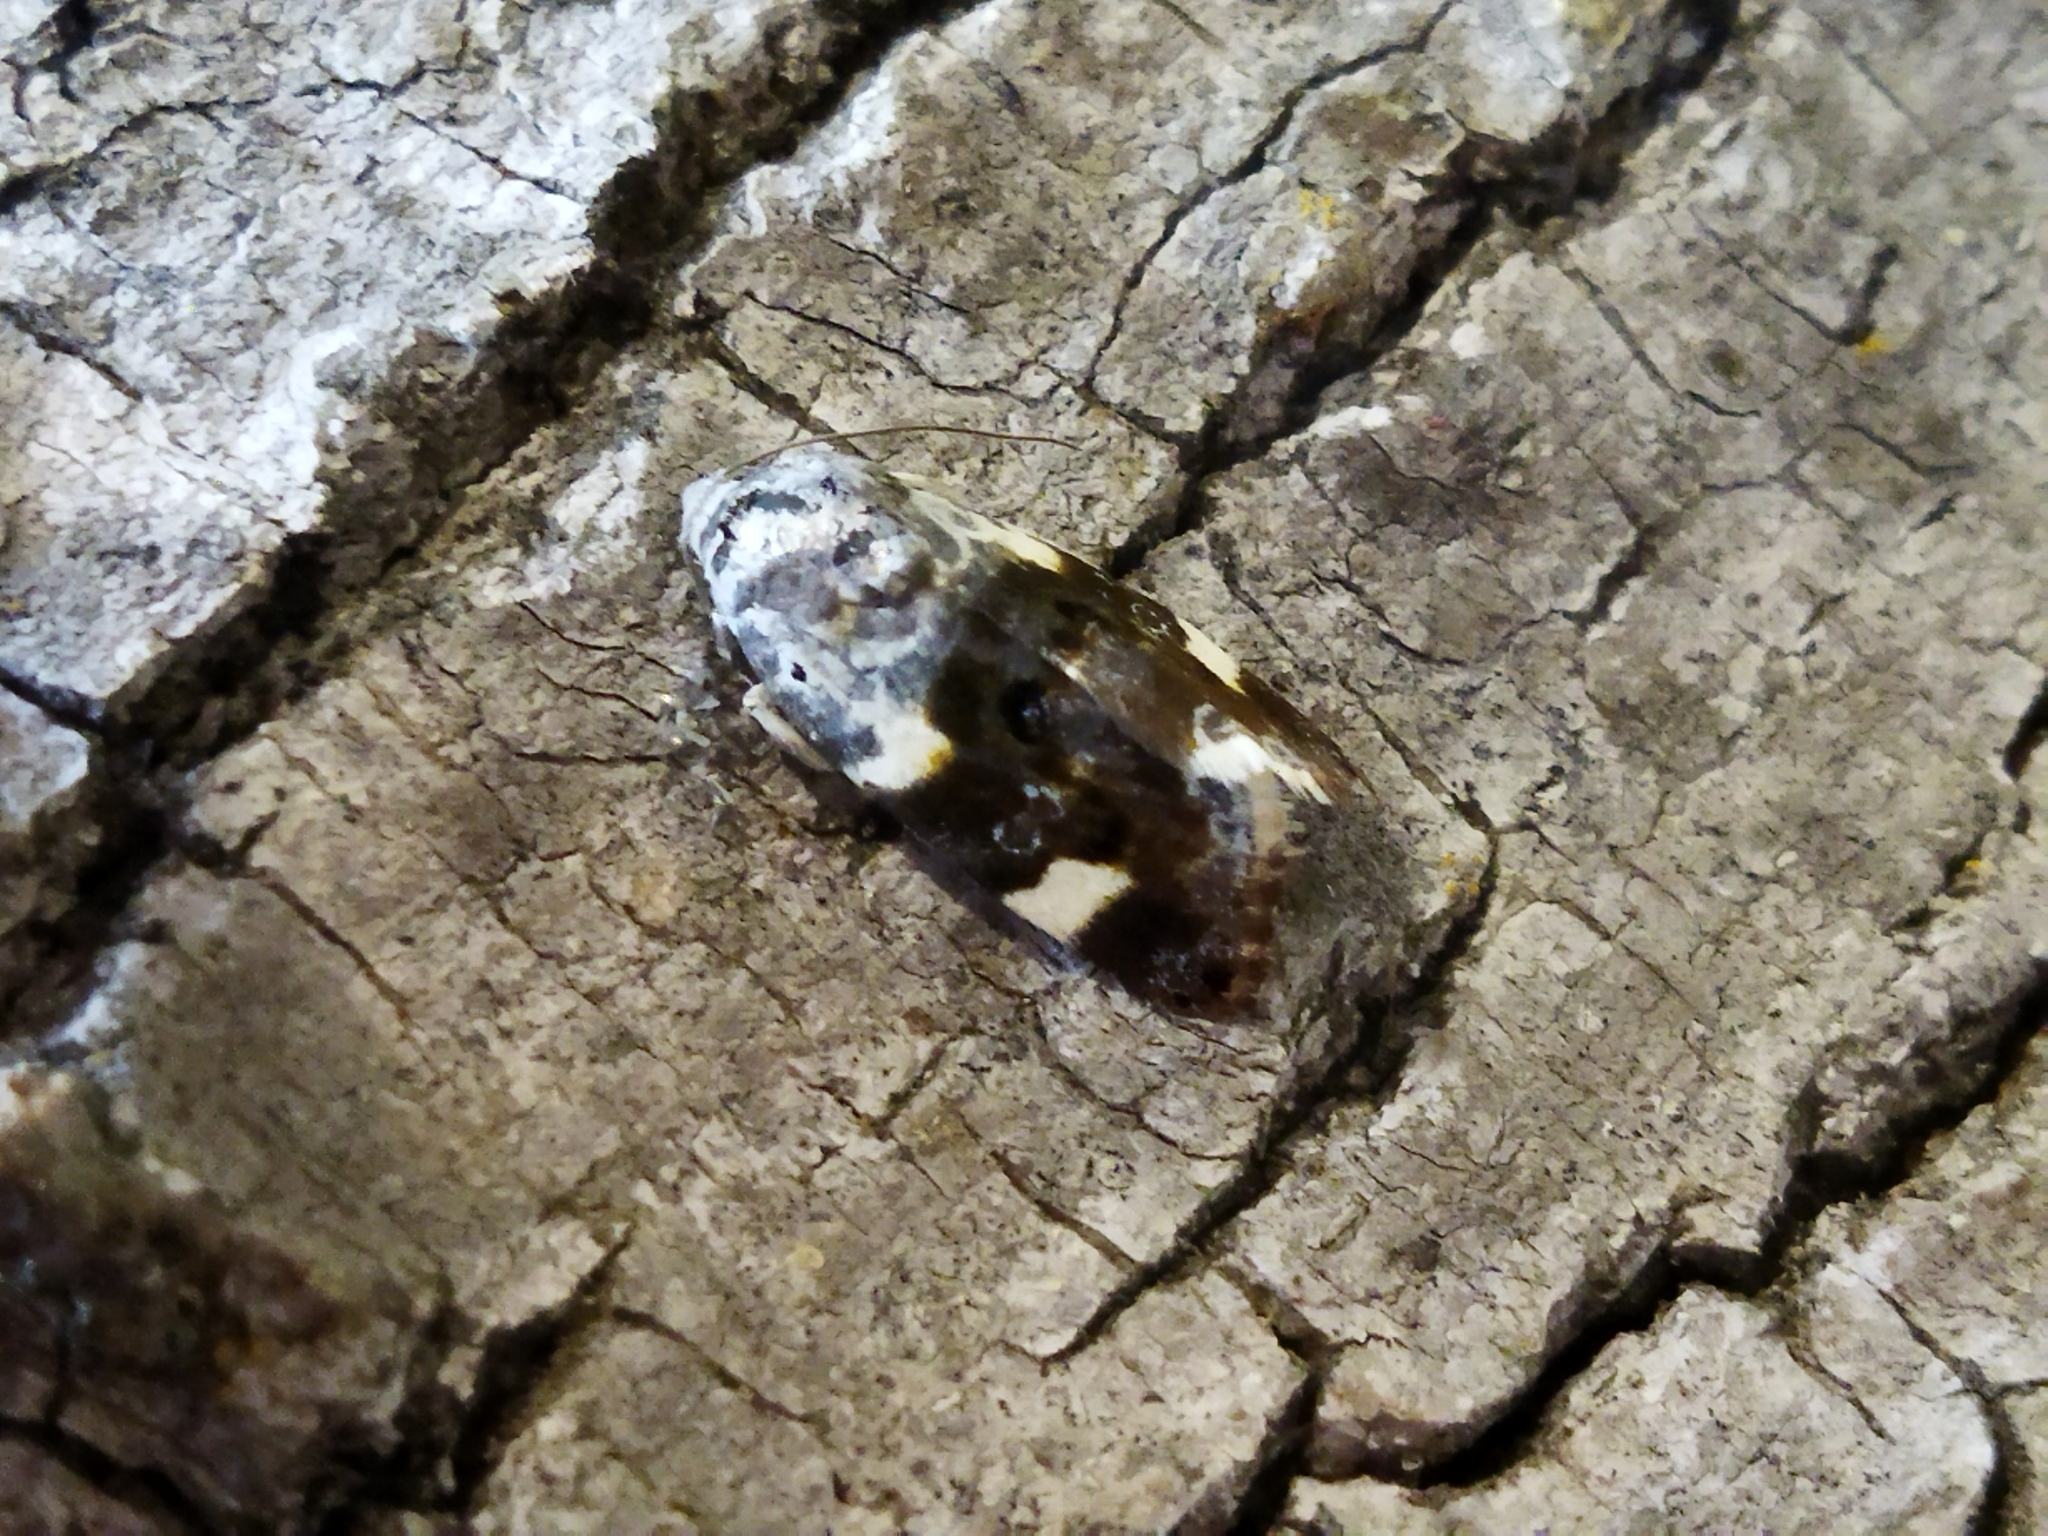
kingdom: Animalia
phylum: Arthropoda
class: Insecta
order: Lepidoptera
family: Noctuidae
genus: Acontia
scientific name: Acontia lucida
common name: Pale shoulder
